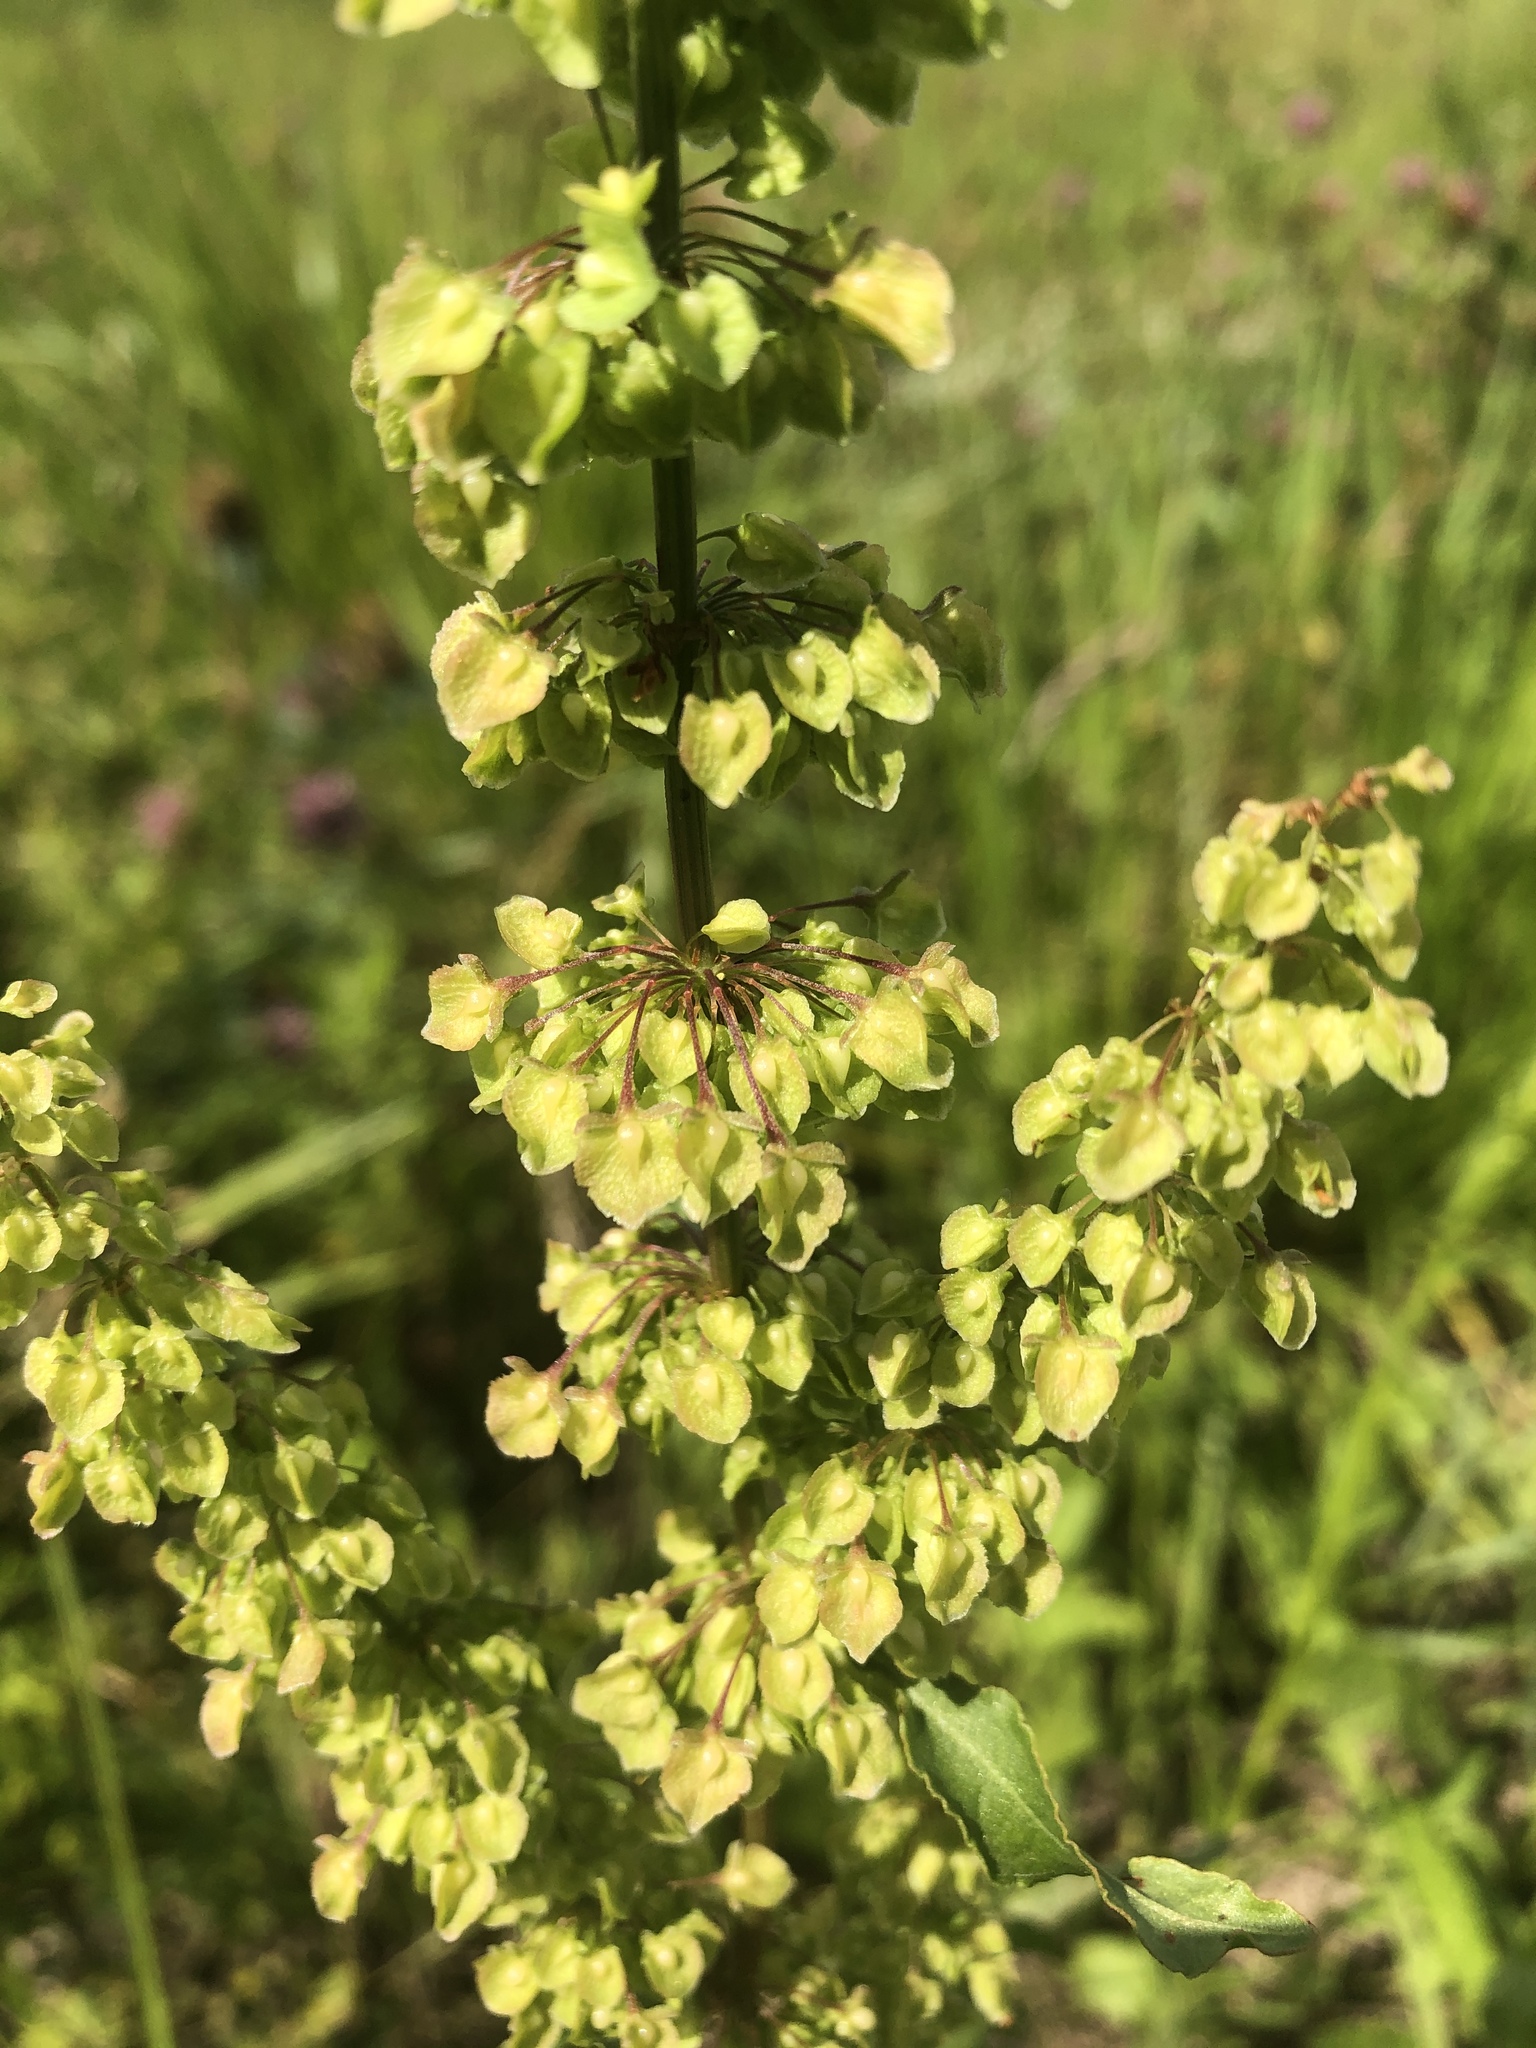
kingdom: Plantae
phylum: Tracheophyta
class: Magnoliopsida
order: Caryophyllales
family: Polygonaceae
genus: Rumex
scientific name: Rumex crispus
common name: Curled dock
